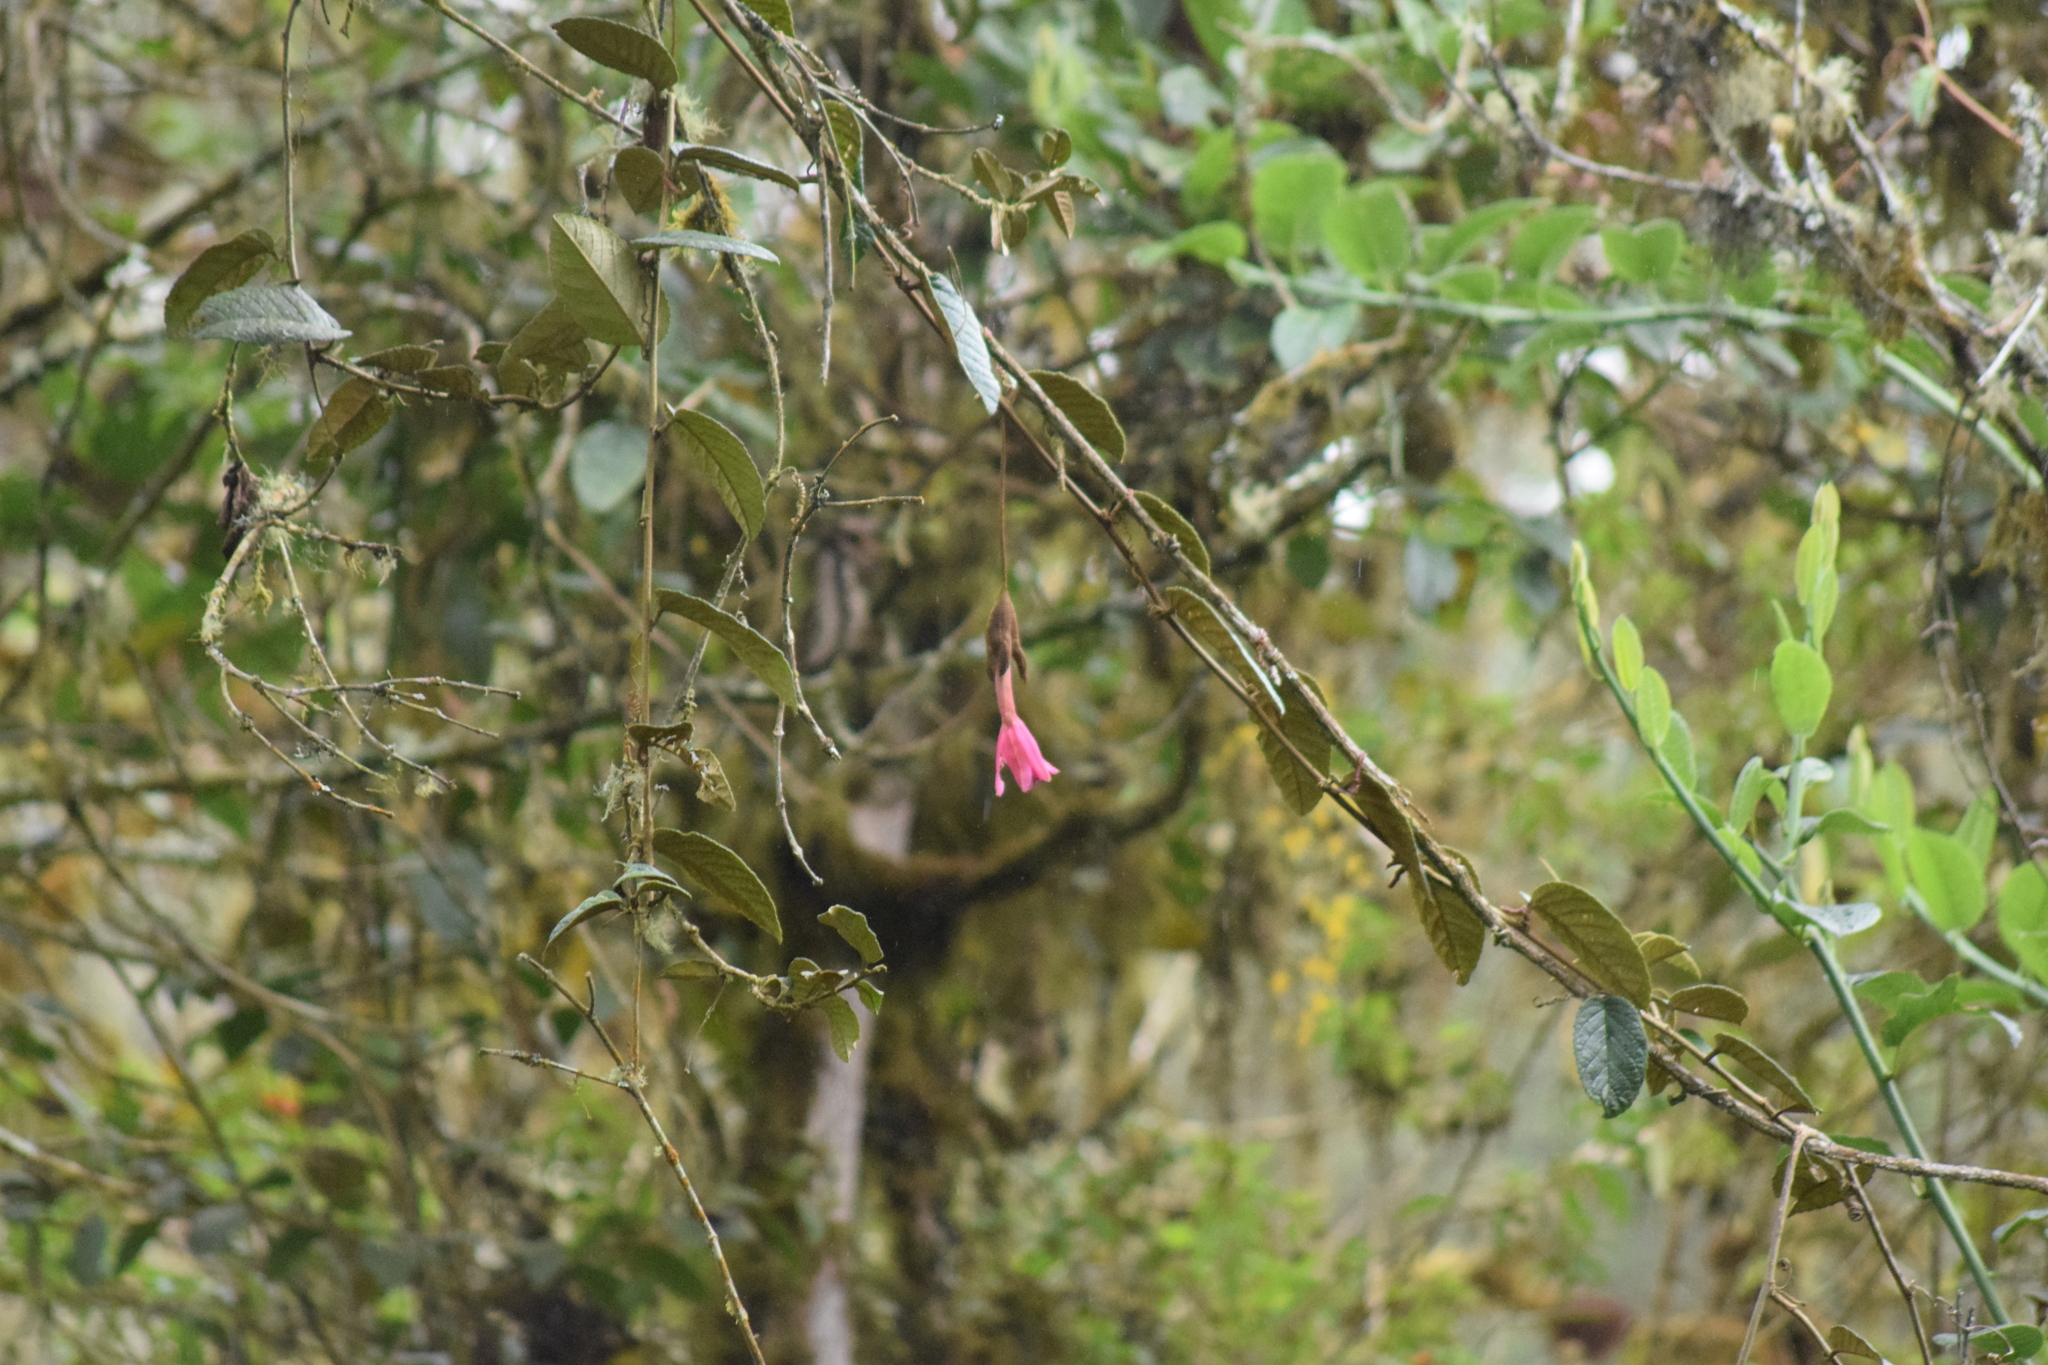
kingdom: Plantae
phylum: Tracheophyta
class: Magnoliopsida
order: Malpighiales
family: Passifloraceae
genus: Passiflora
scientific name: Passiflora lanata
